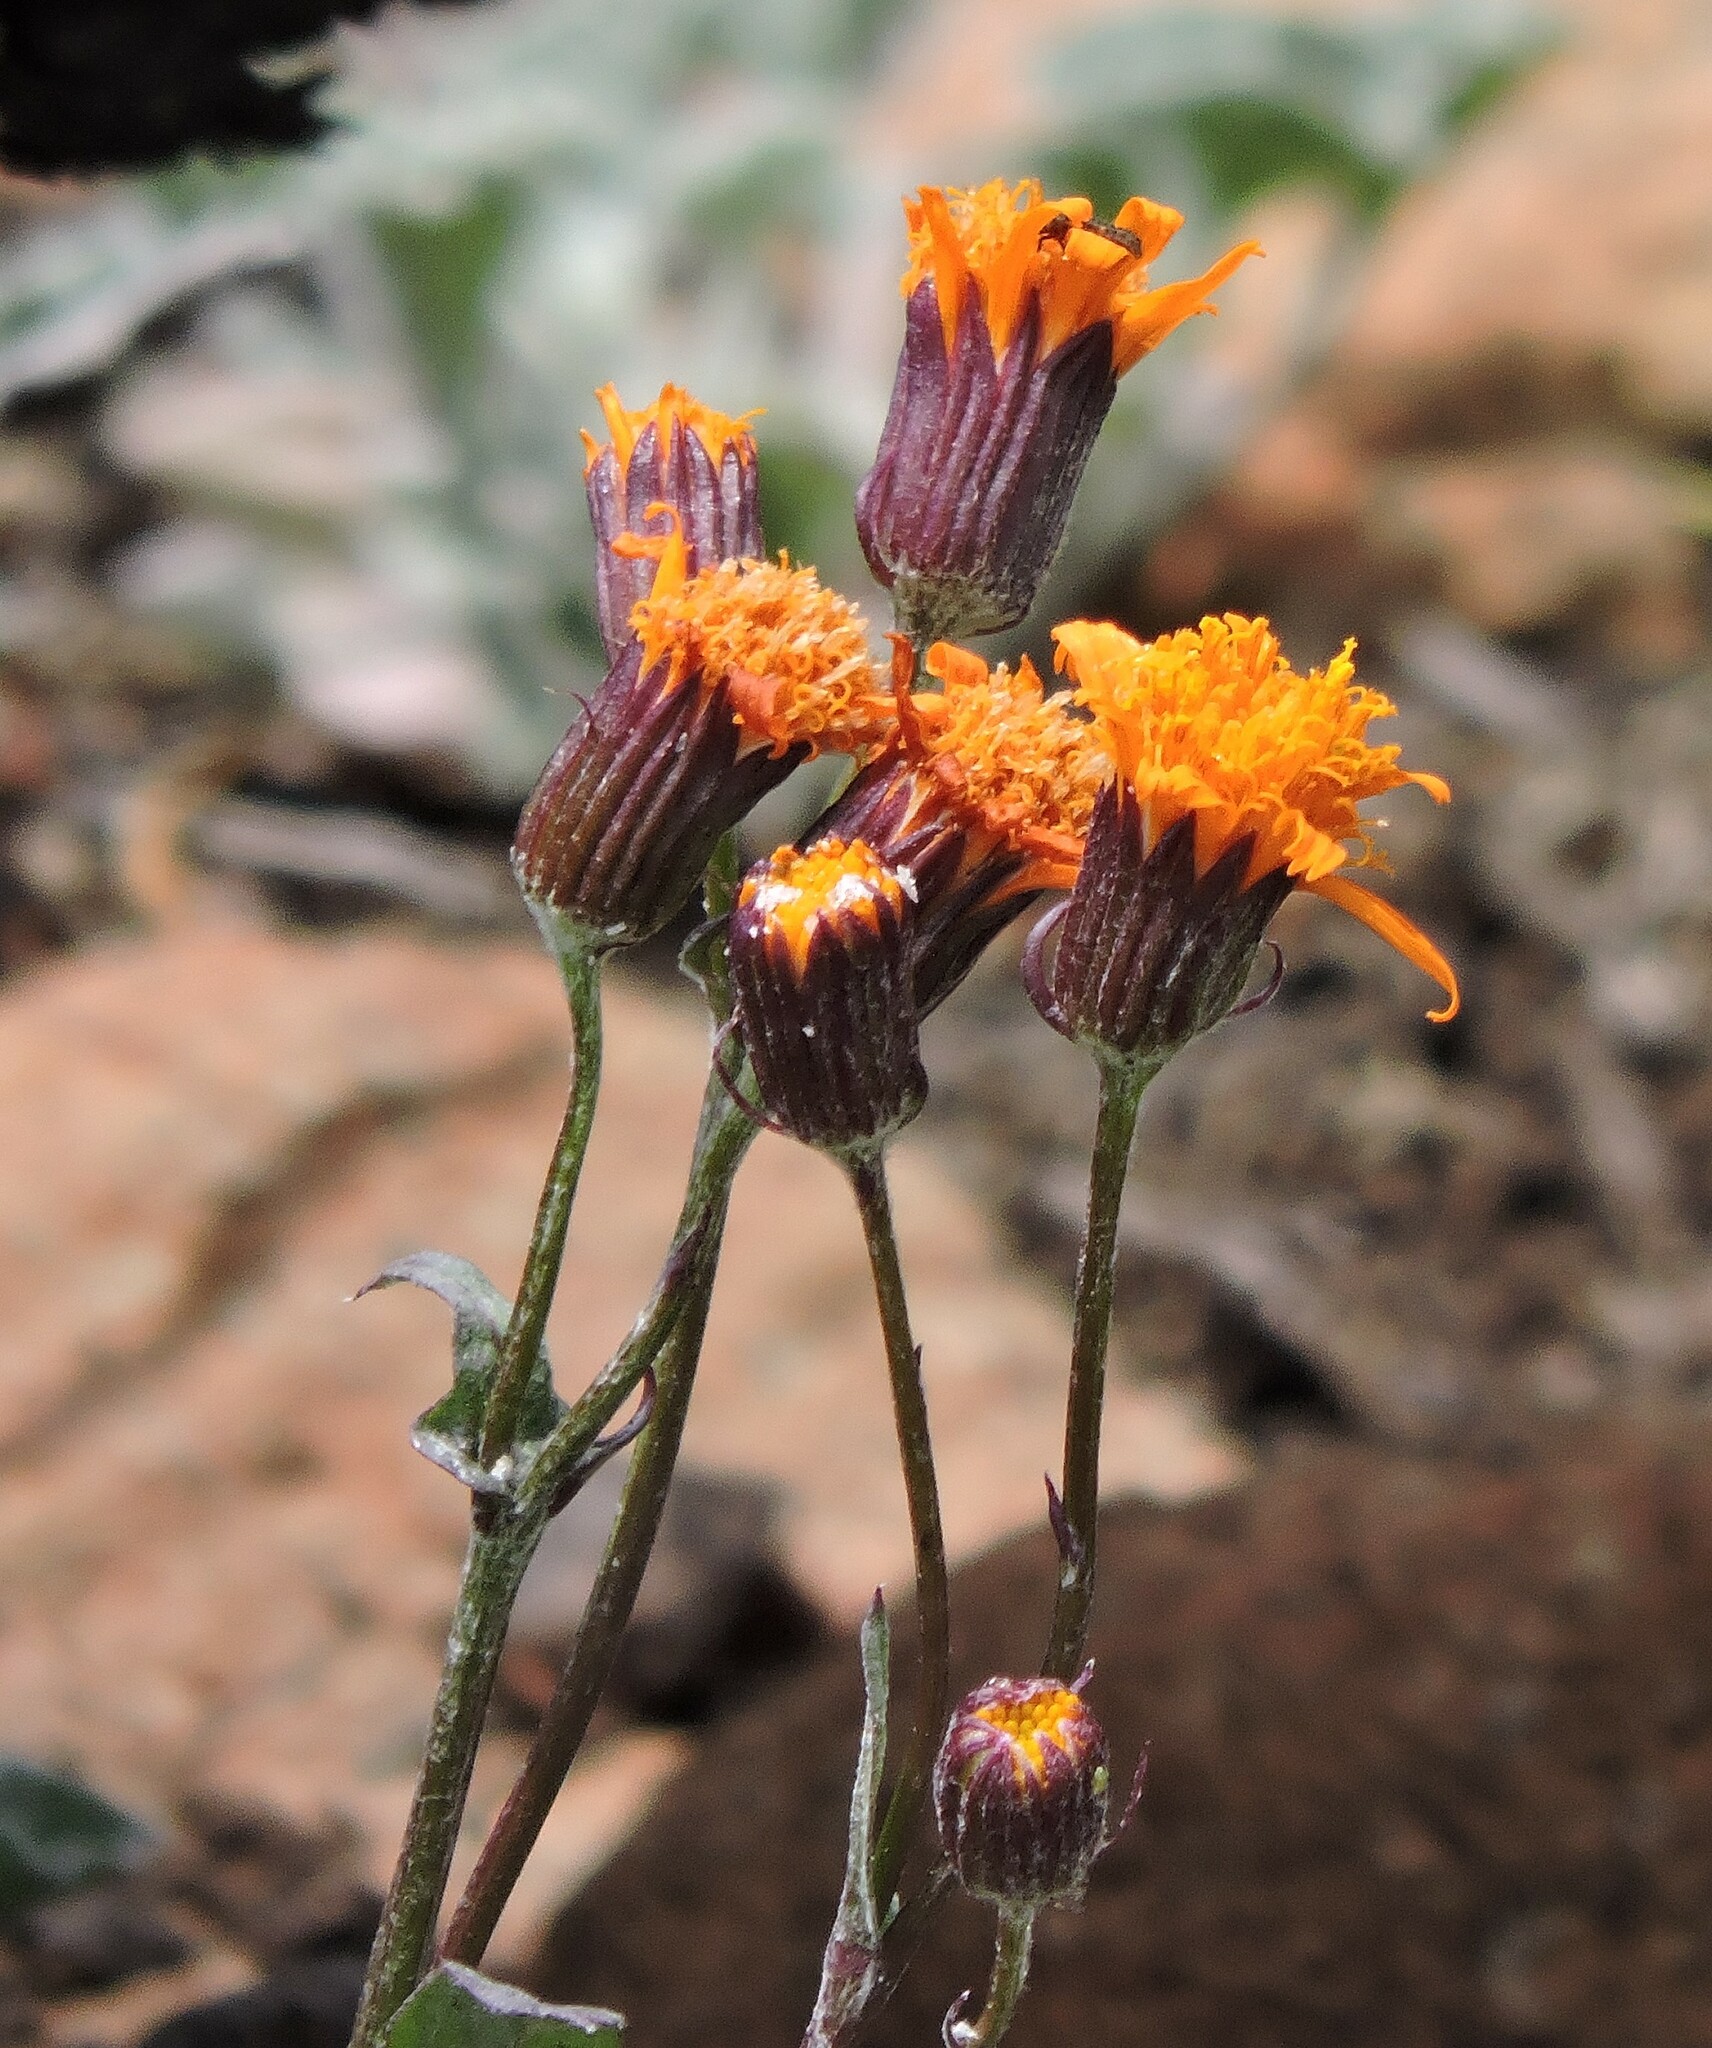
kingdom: Plantae
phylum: Tracheophyta
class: Magnoliopsida
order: Asterales
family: Asteraceae
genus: Packera
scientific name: Packera greenei
